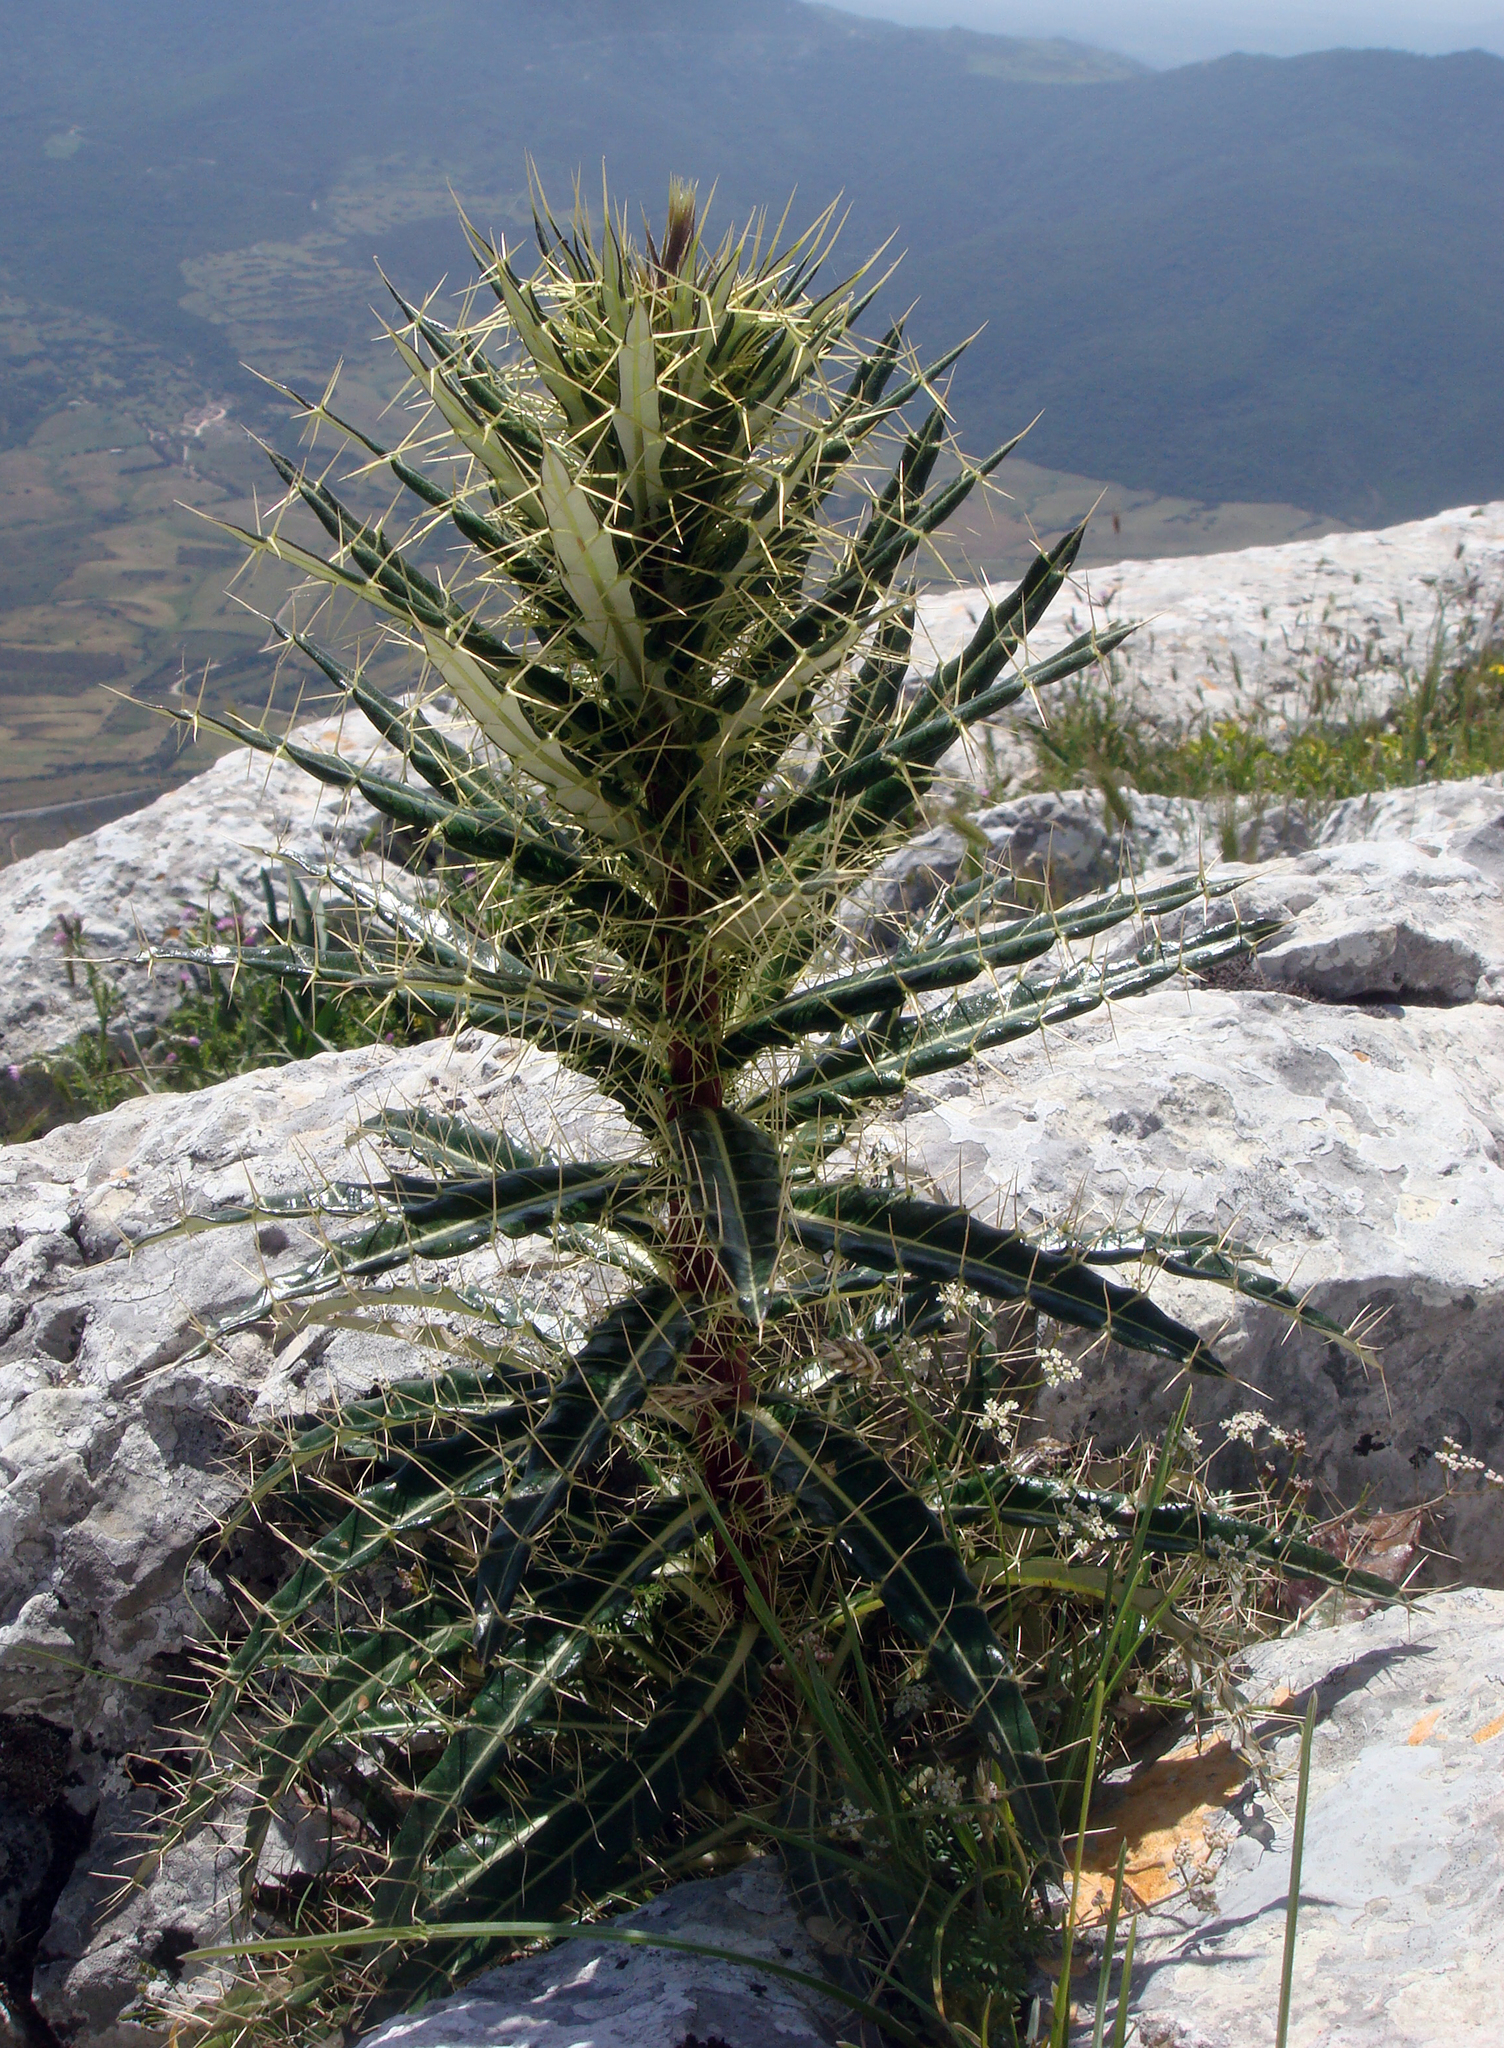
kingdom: Plantae
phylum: Tracheophyta
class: Magnoliopsida
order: Asterales
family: Asteraceae
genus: Ptilostemon
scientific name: Ptilostemon casabonae
